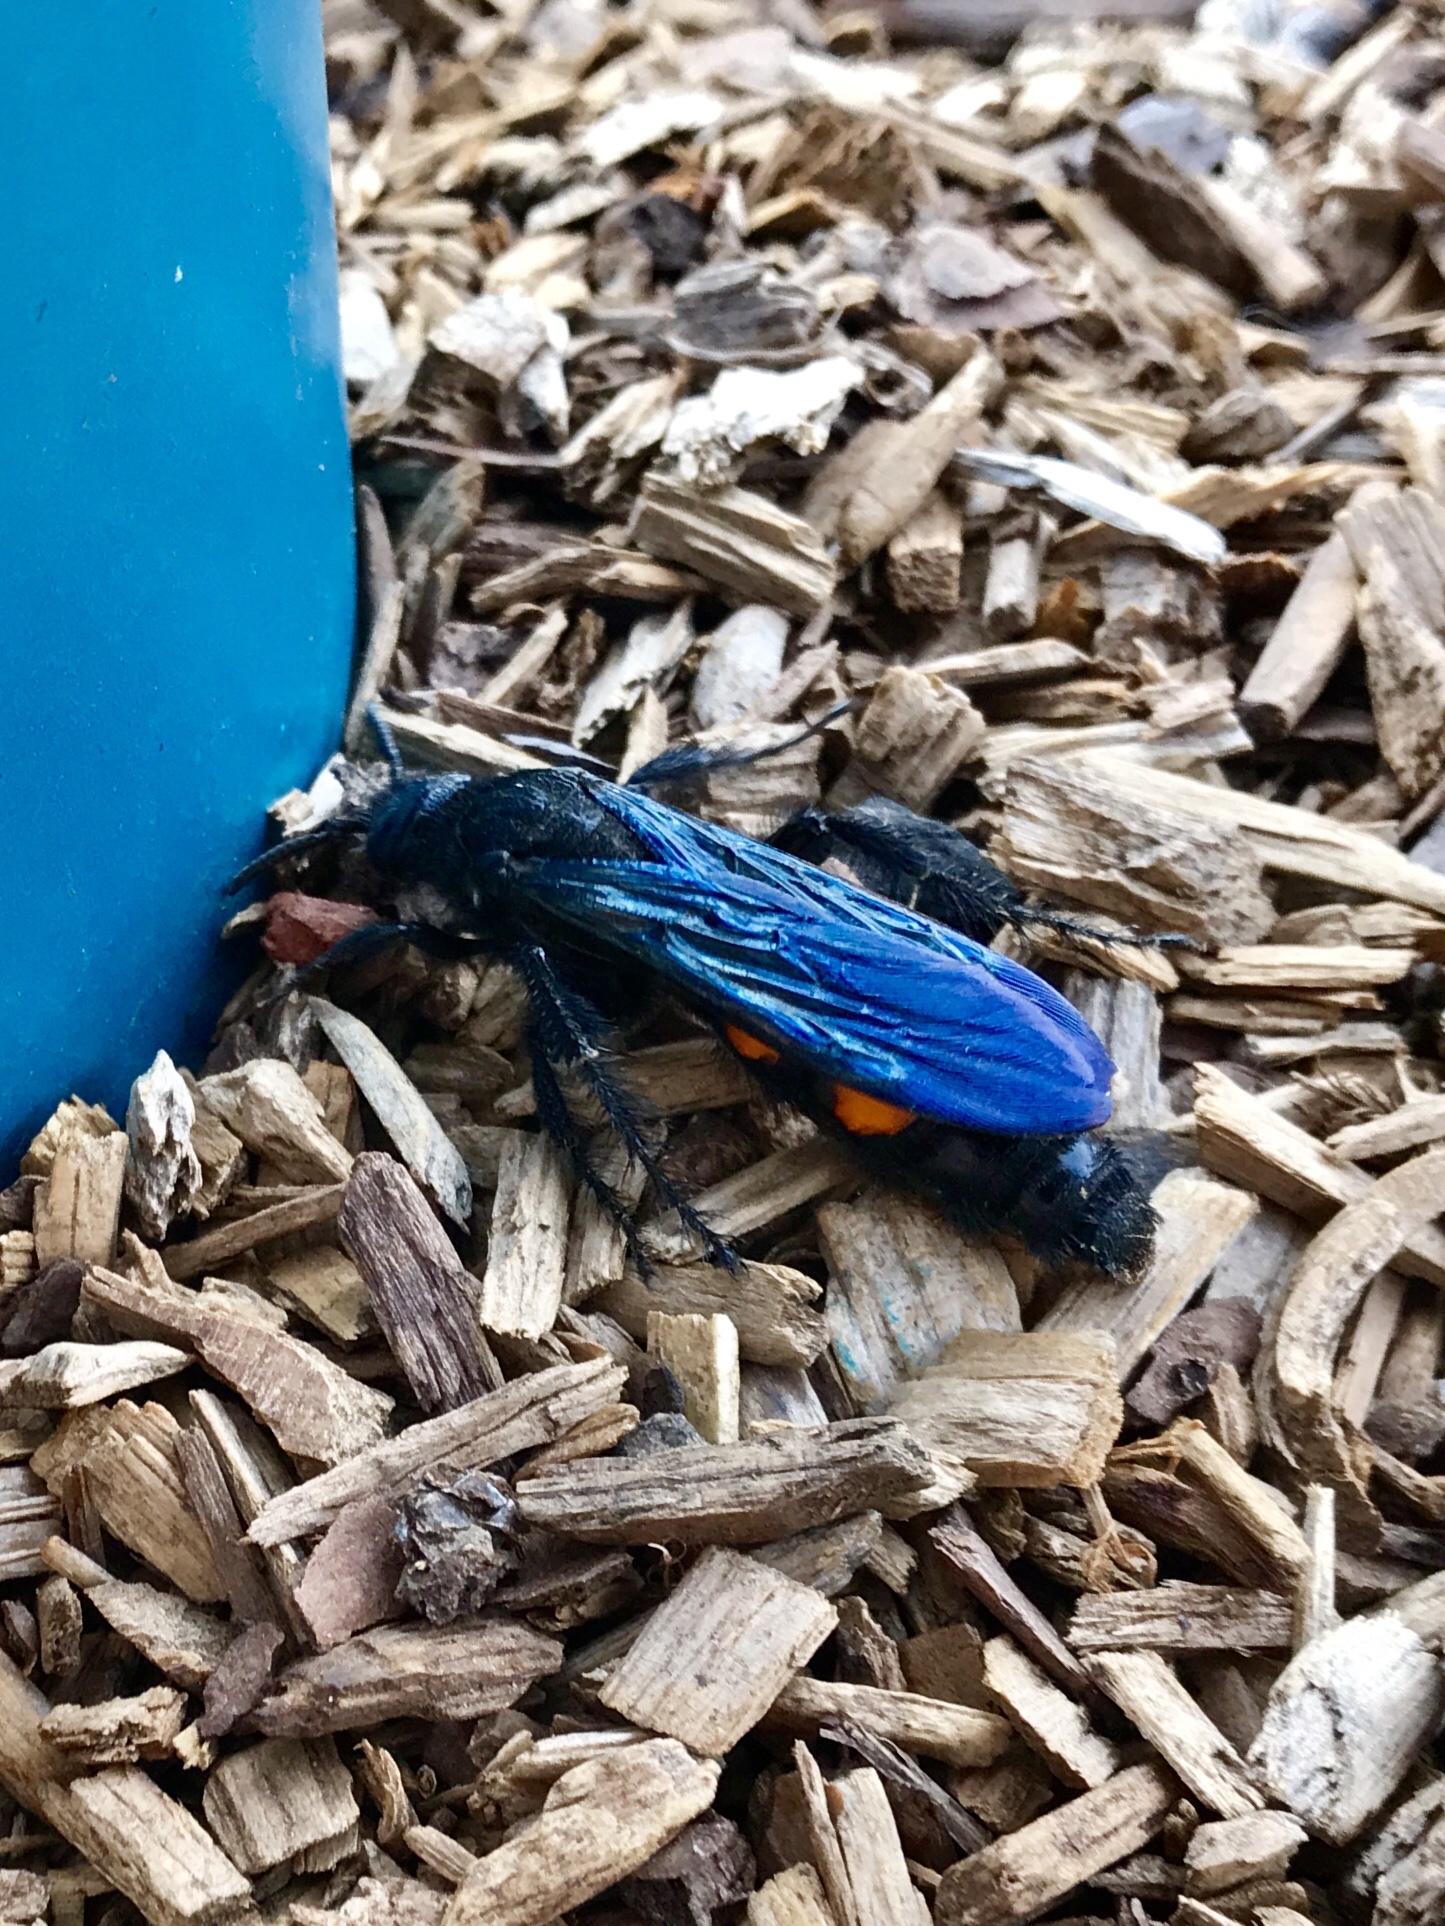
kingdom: Animalia
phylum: Arthropoda
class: Insecta
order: Hymenoptera
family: Scoliidae
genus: Pygodasis
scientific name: Pygodasis ephippium
